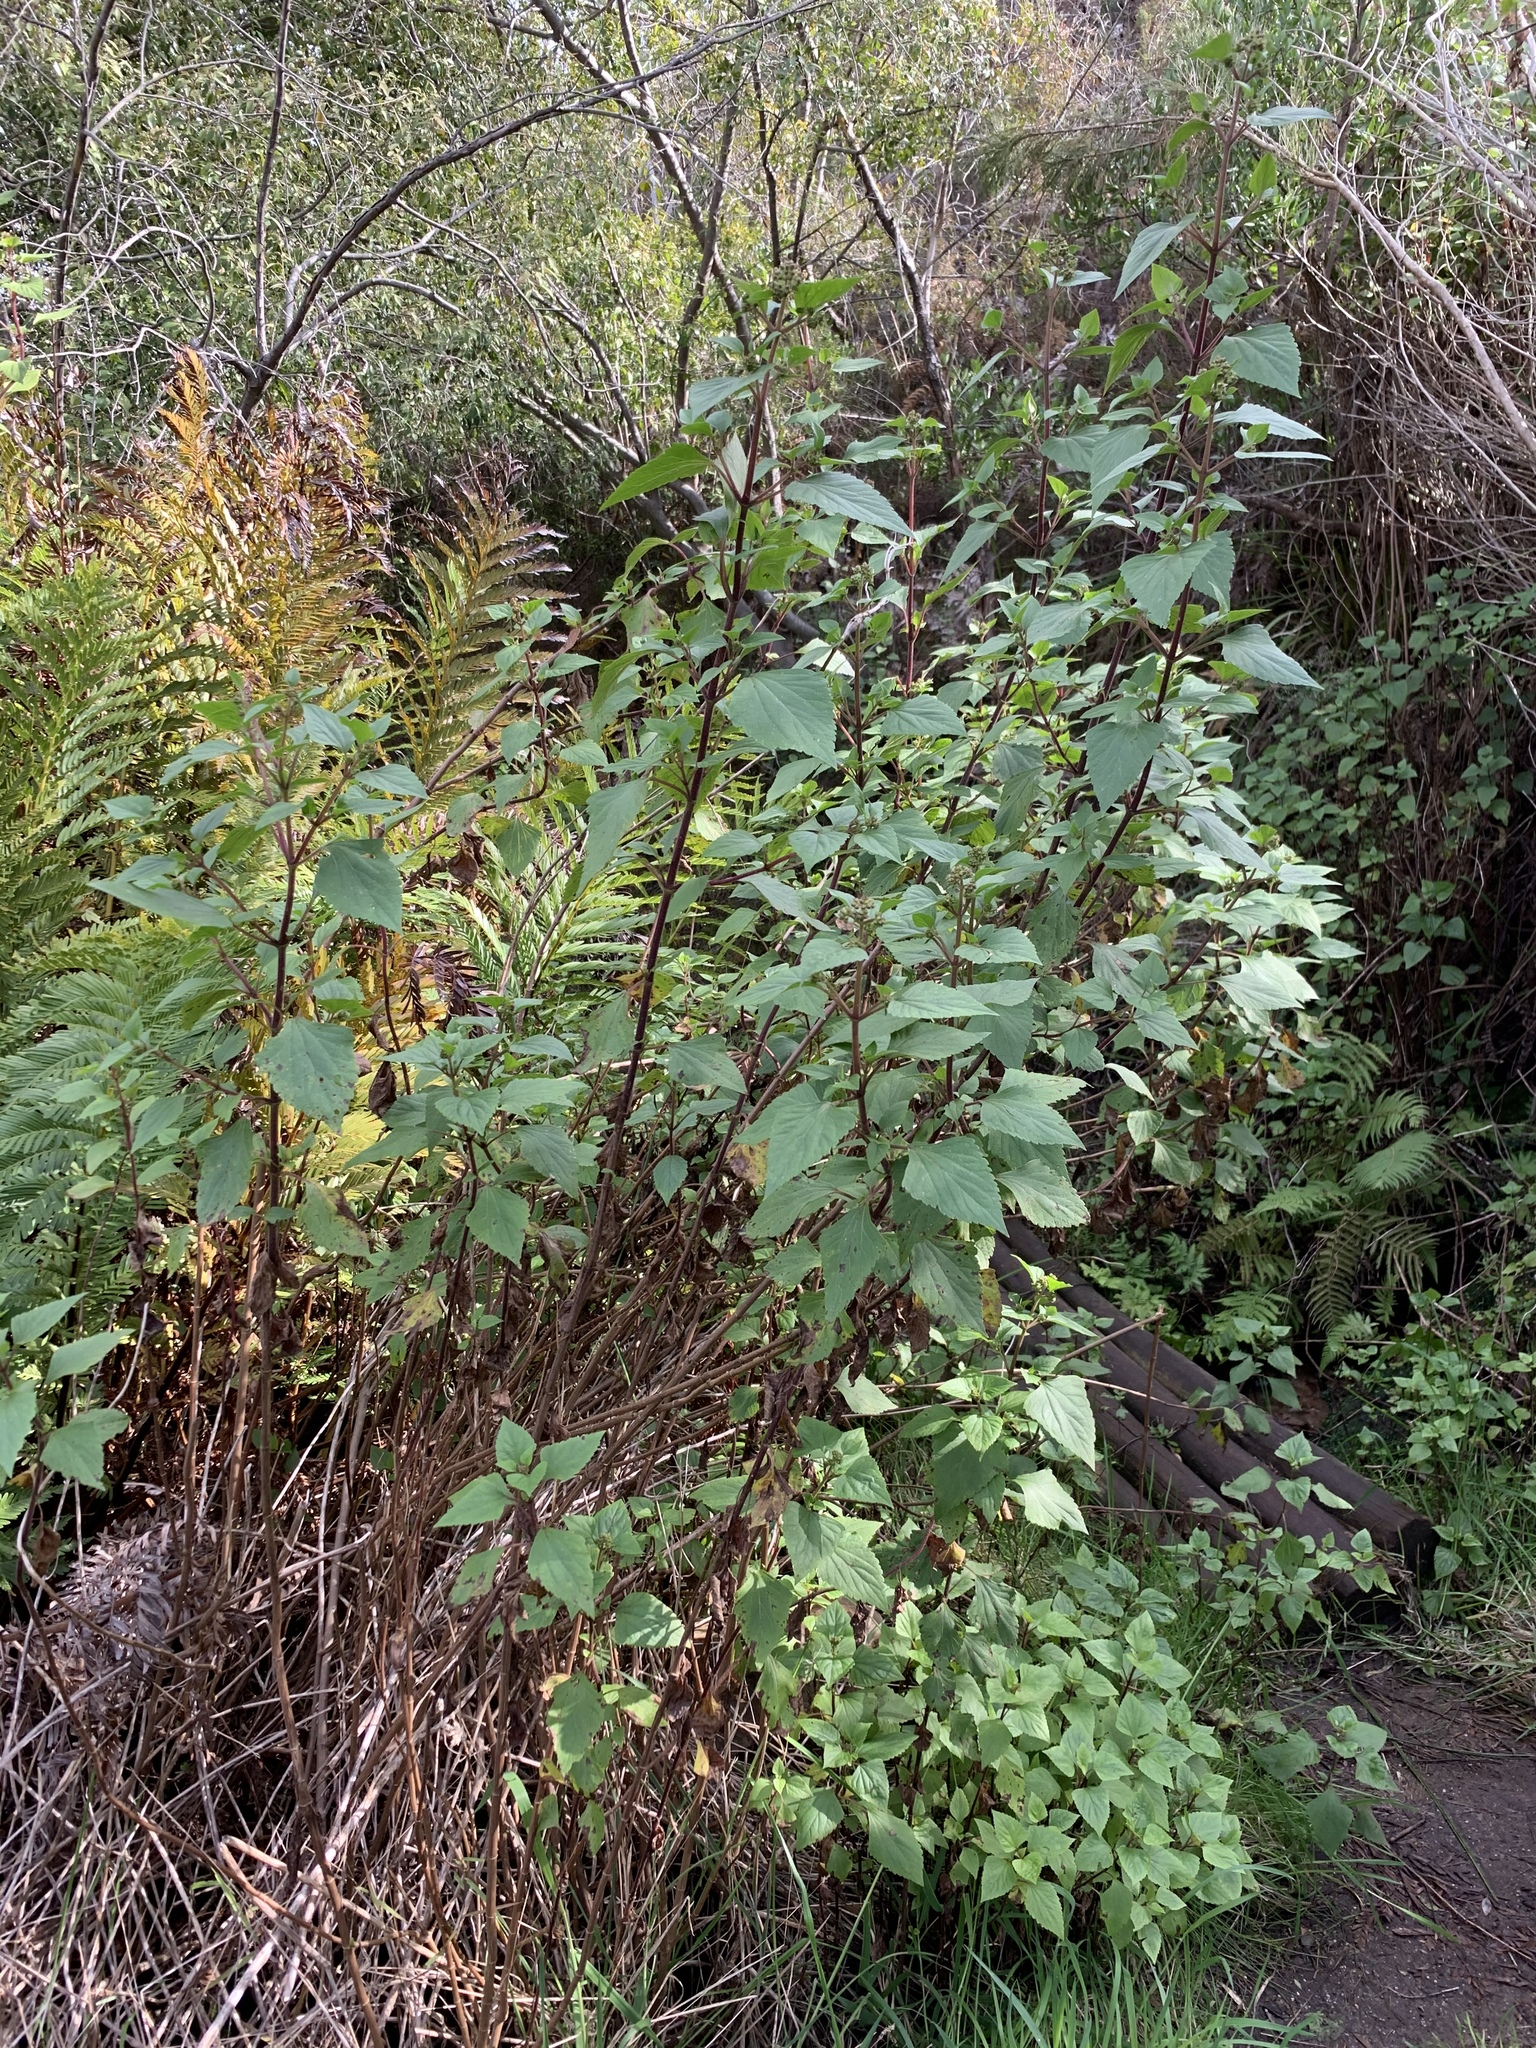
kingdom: Plantae
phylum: Tracheophyta
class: Magnoliopsida
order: Asterales
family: Asteraceae
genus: Ageratina
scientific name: Ageratina adenophora
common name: Sticky snakeroot
